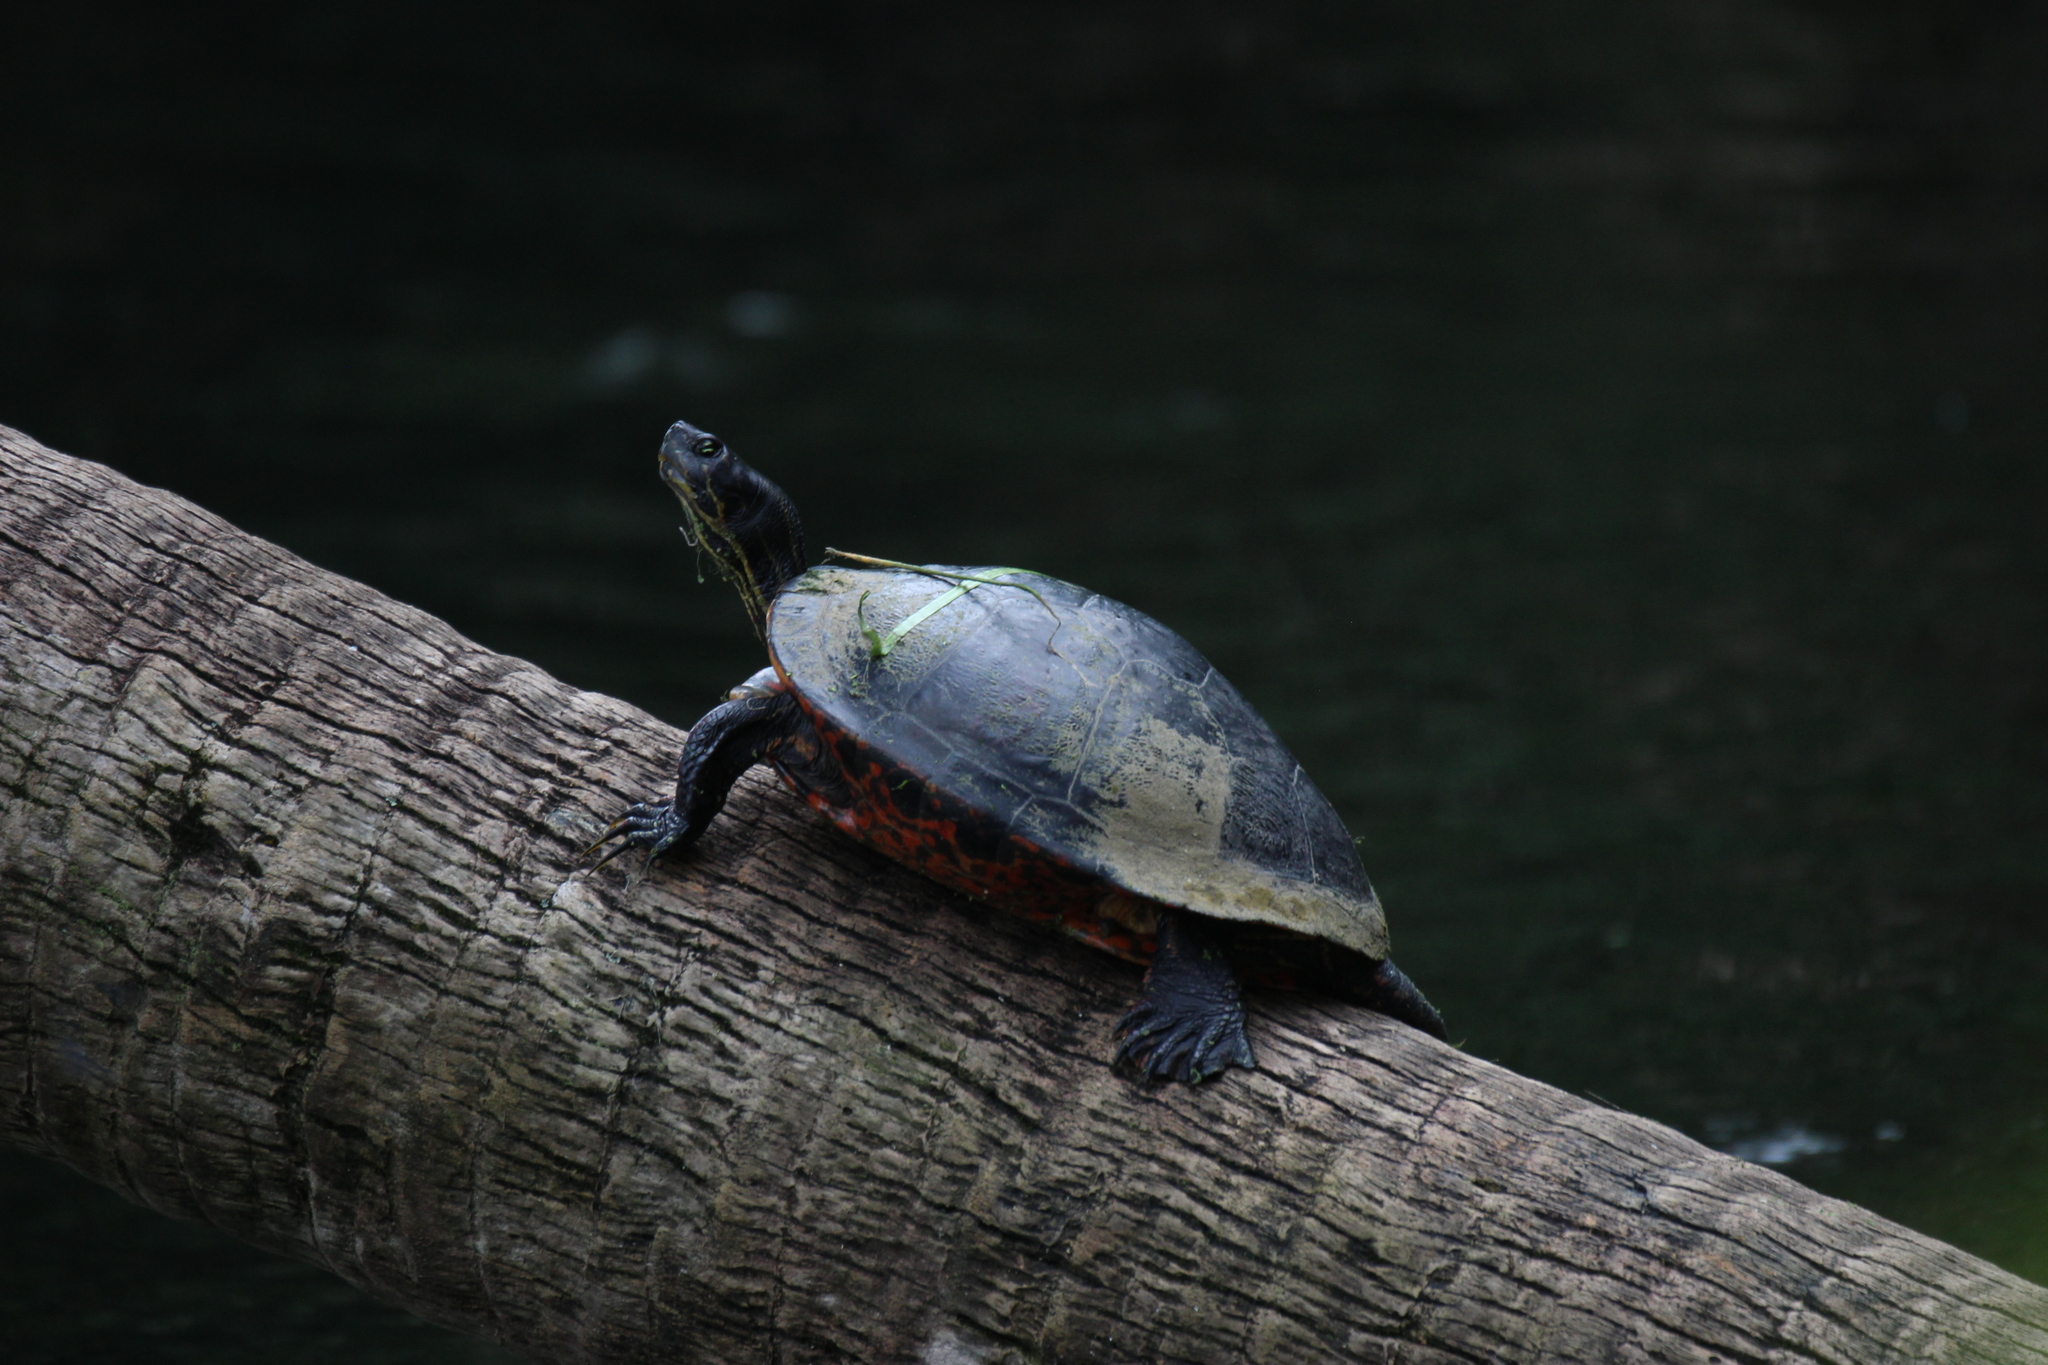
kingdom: Animalia
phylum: Chordata
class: Testudines
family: Emydidae
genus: Pseudemys
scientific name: Pseudemys nelsoni
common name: Florida red-bellied turtle
